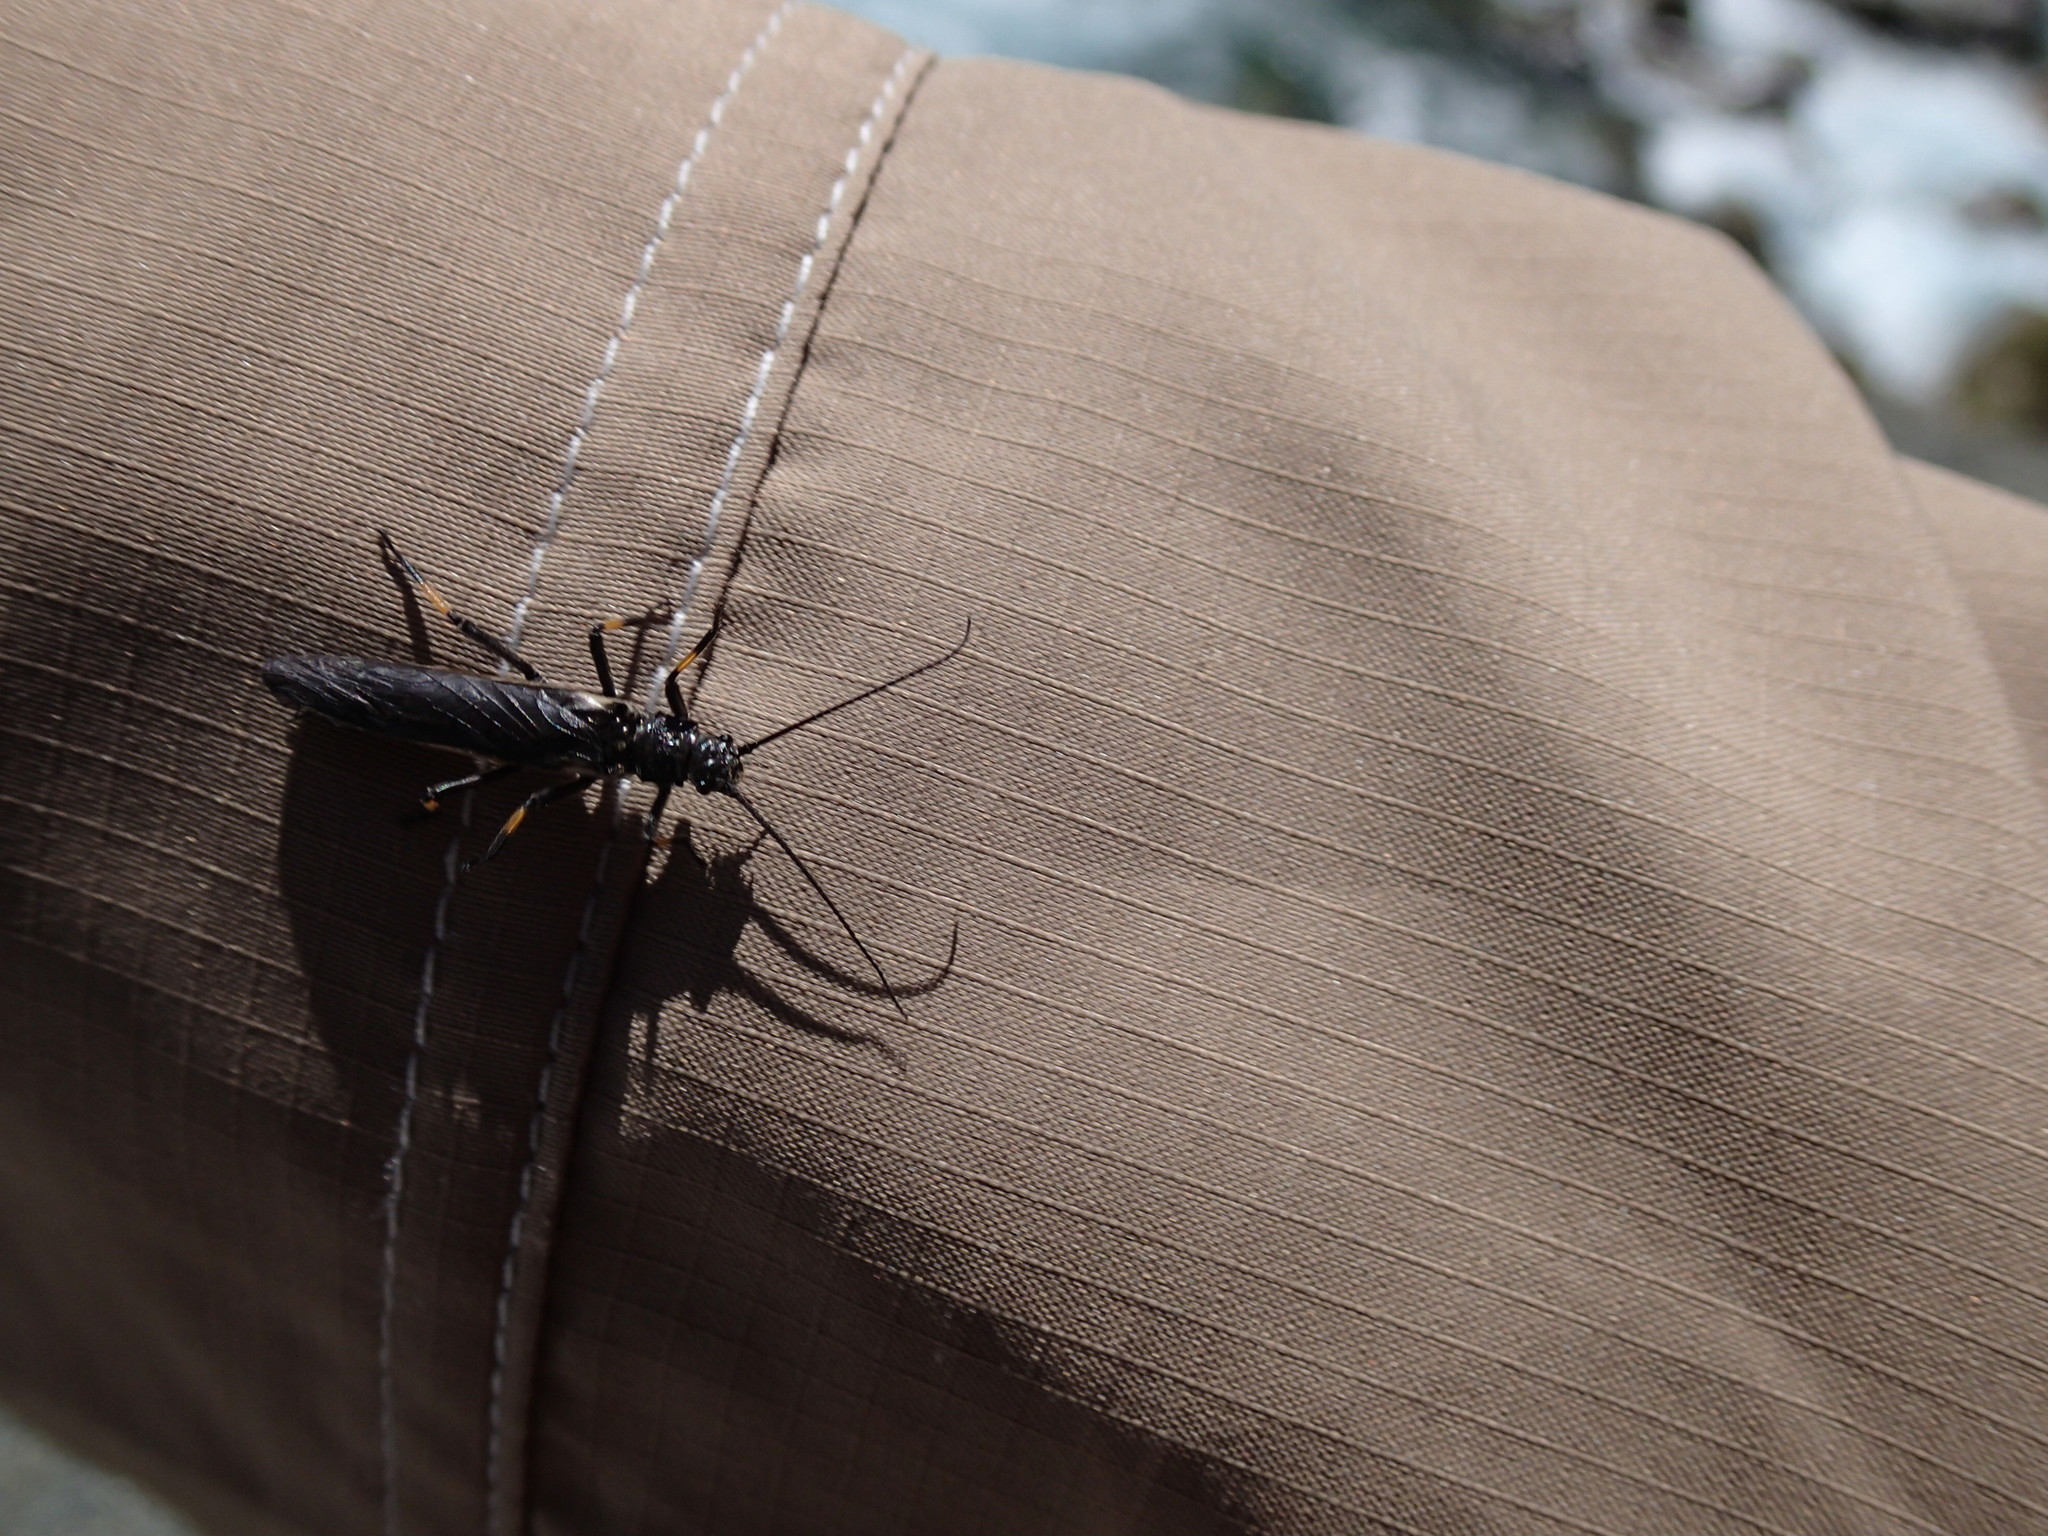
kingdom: Animalia
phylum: Arthropoda
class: Insecta
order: Plecoptera
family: Austroperlidae
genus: Austroperla
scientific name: Austroperla cyrene
